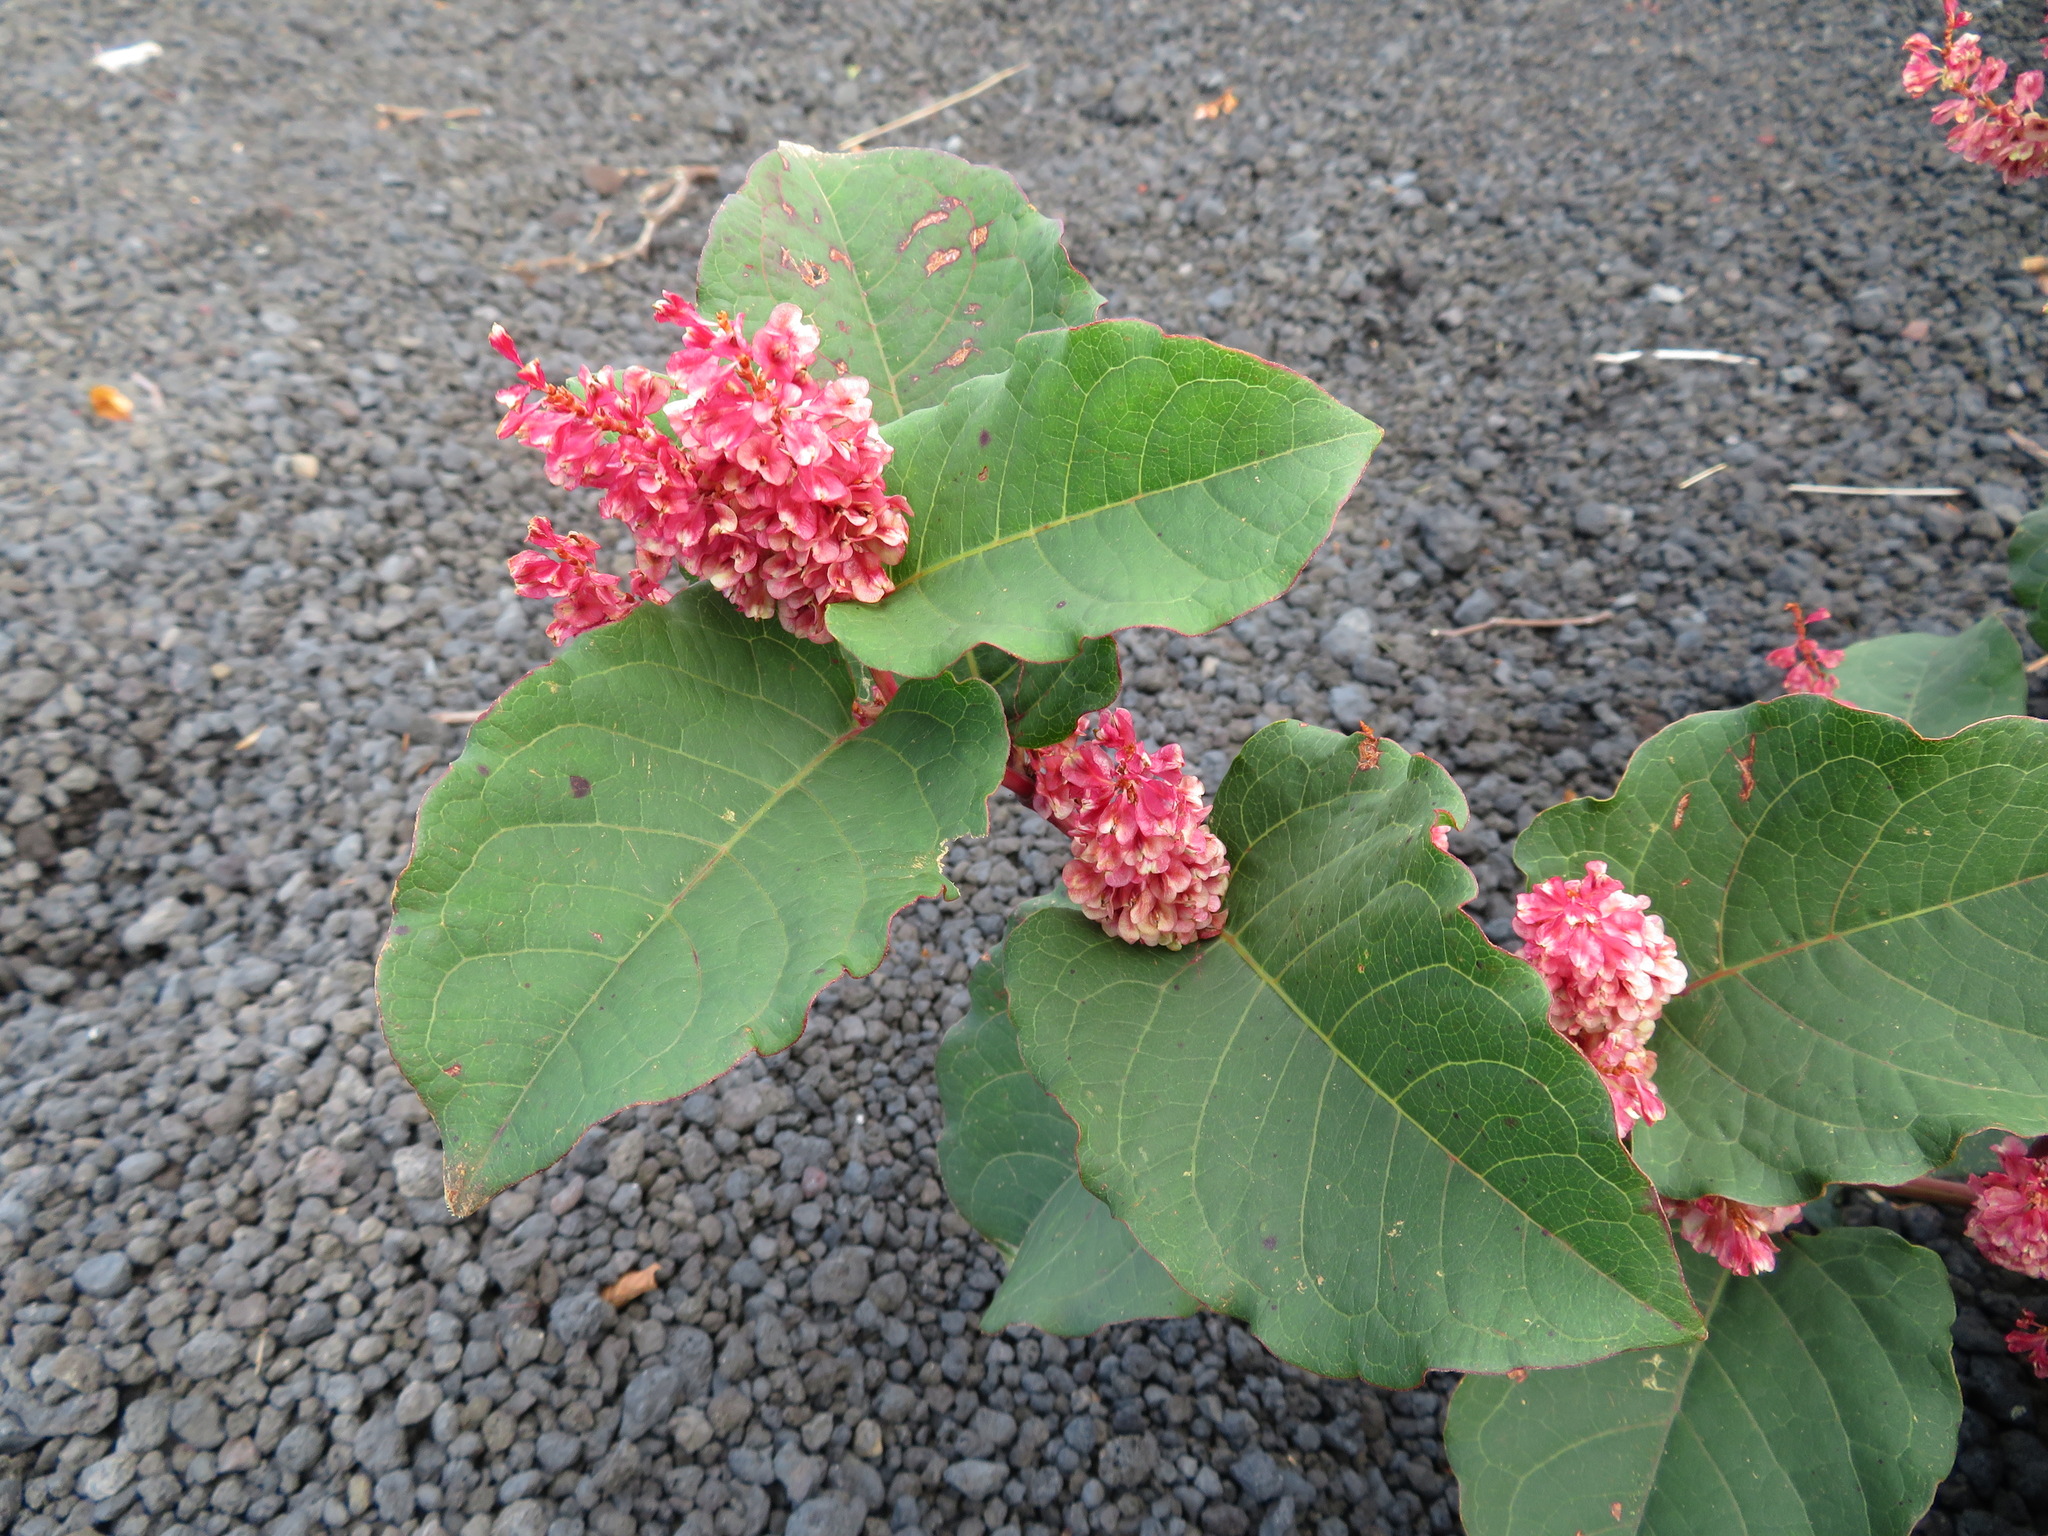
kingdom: Plantae
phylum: Tracheophyta
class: Magnoliopsida
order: Caryophyllales
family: Polygonaceae
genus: Reynoutria
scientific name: Reynoutria japonica
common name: Japanese knotweed
